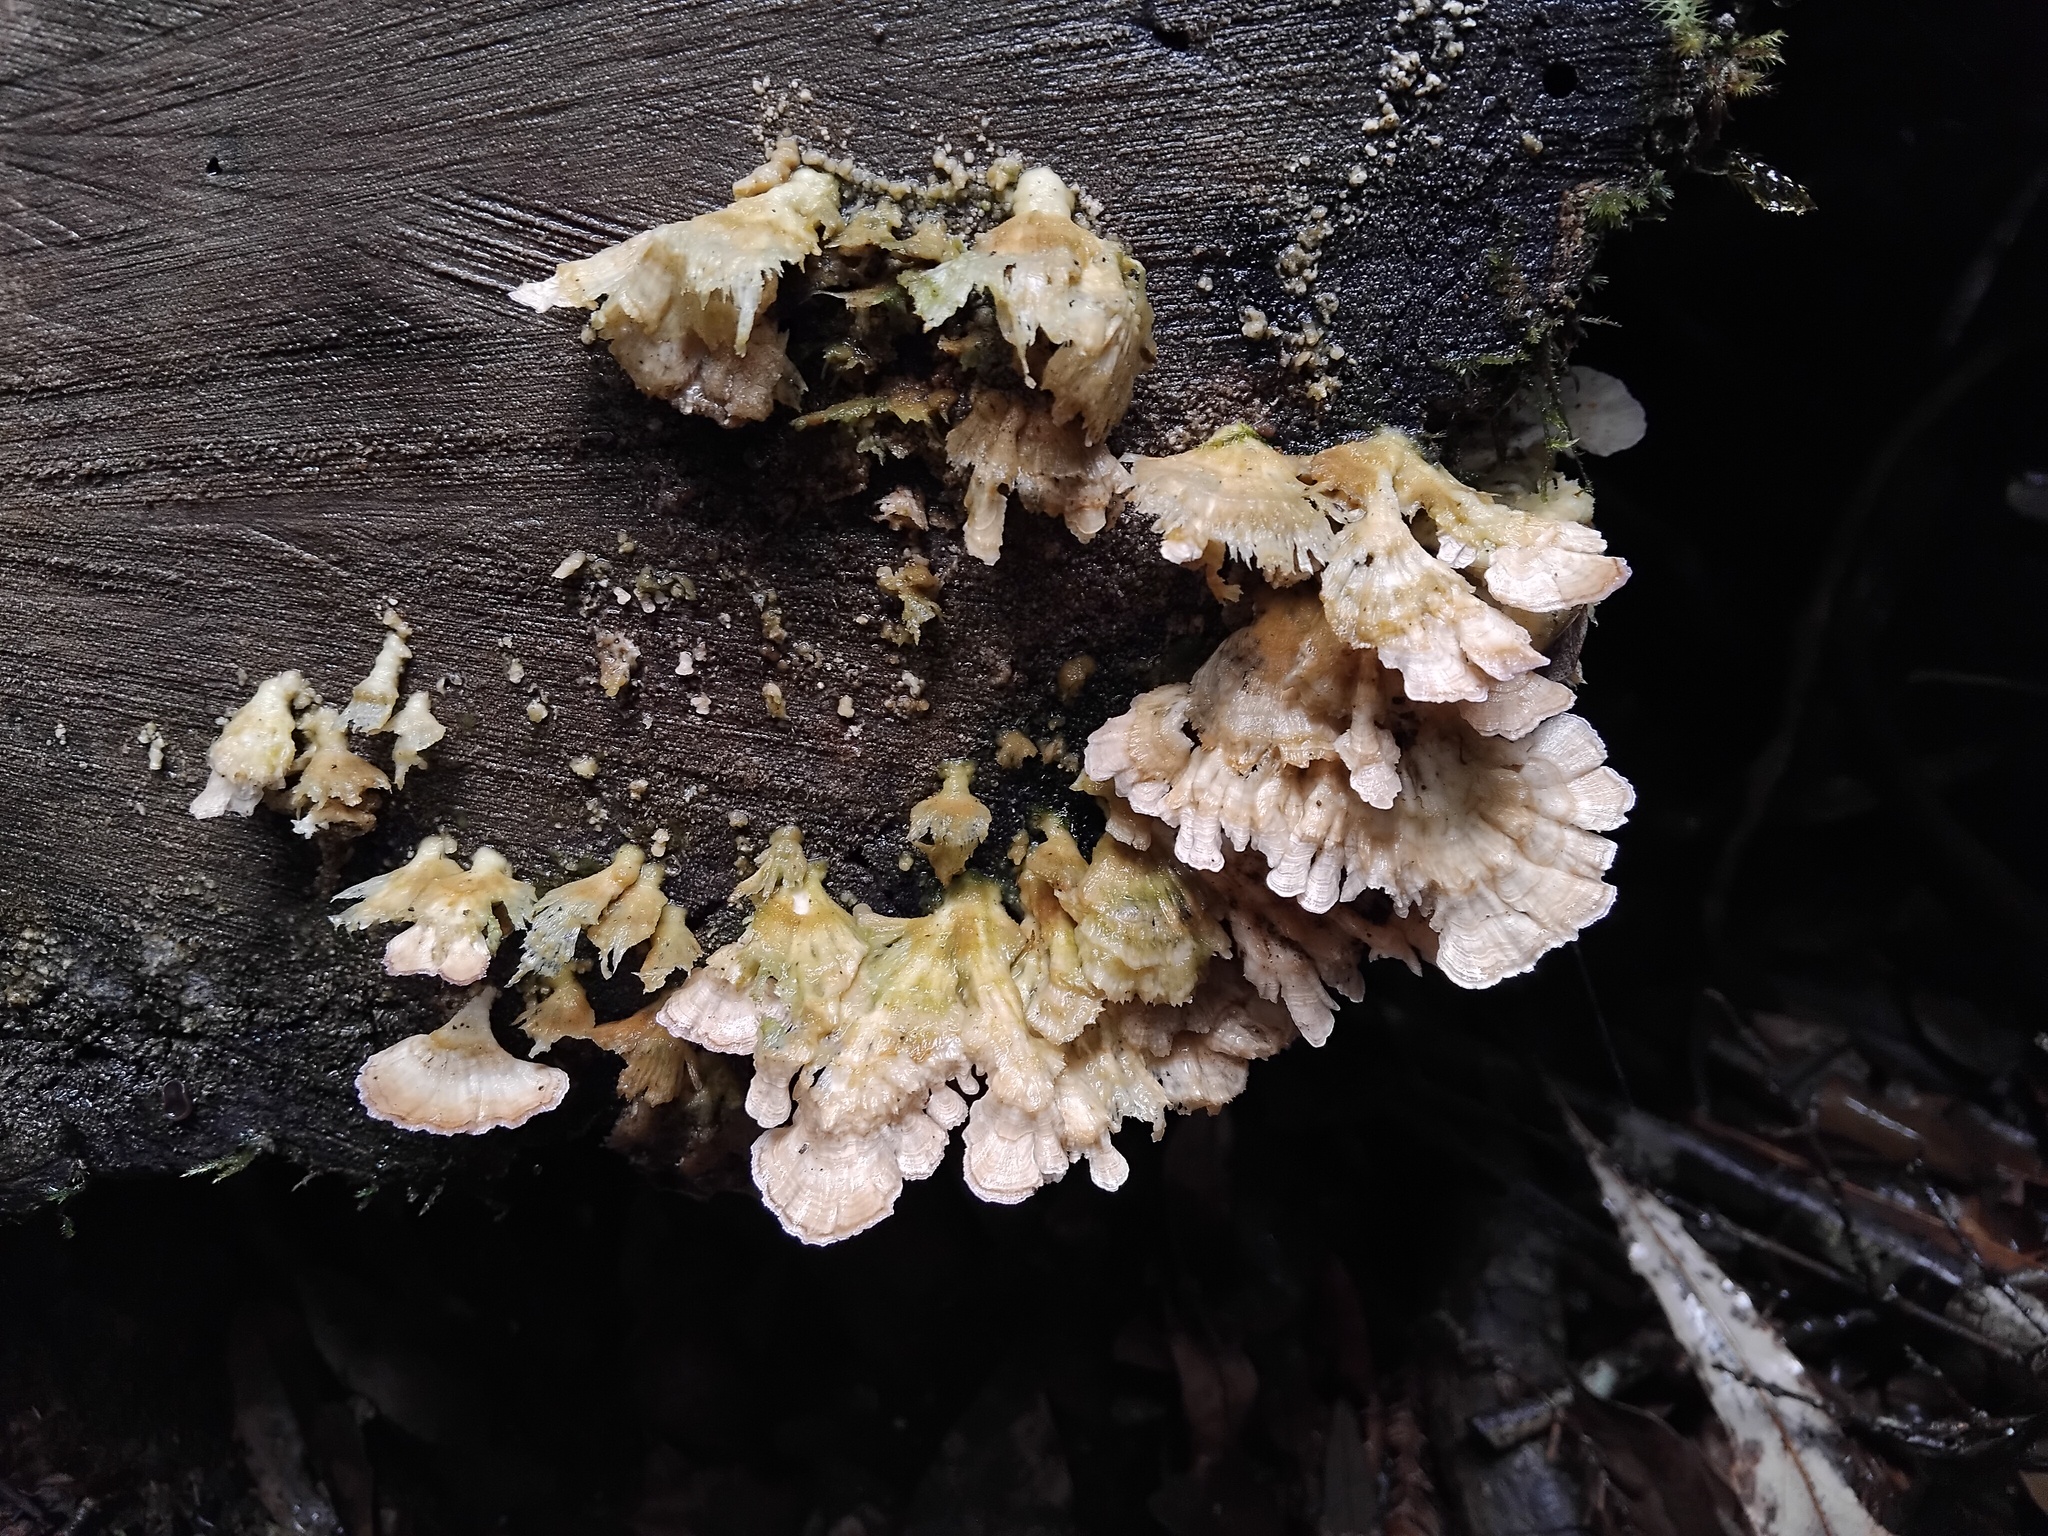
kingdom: Fungi
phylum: Basidiomycota
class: Agaricomycetes
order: Hymenochaetales
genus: Trichaptum
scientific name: Trichaptum biforme
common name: Violet-toothed polypore
